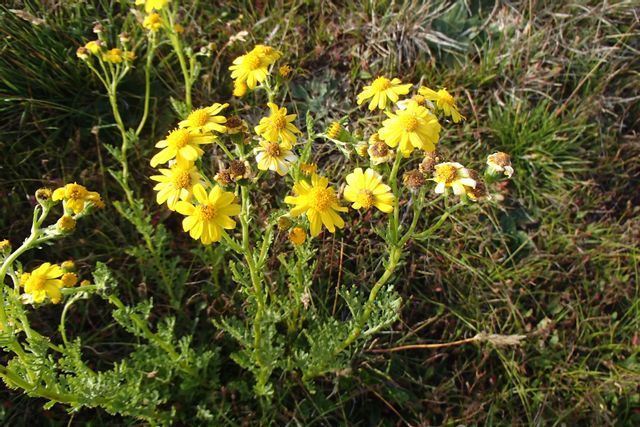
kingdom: Plantae
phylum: Tracheophyta
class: Magnoliopsida
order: Asterales
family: Asteraceae
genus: Senecio
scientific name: Senecio pinnatifolius
